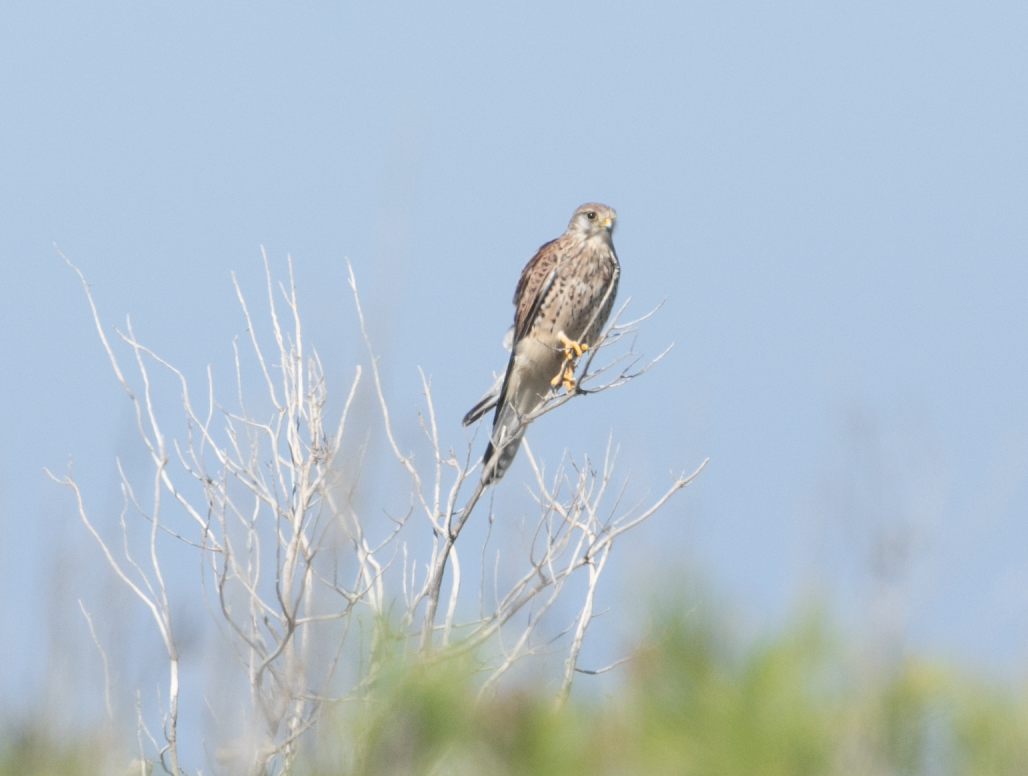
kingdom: Animalia
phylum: Chordata
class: Aves
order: Falconiformes
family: Falconidae
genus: Falco
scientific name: Falco tinnunculus
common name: Common kestrel
